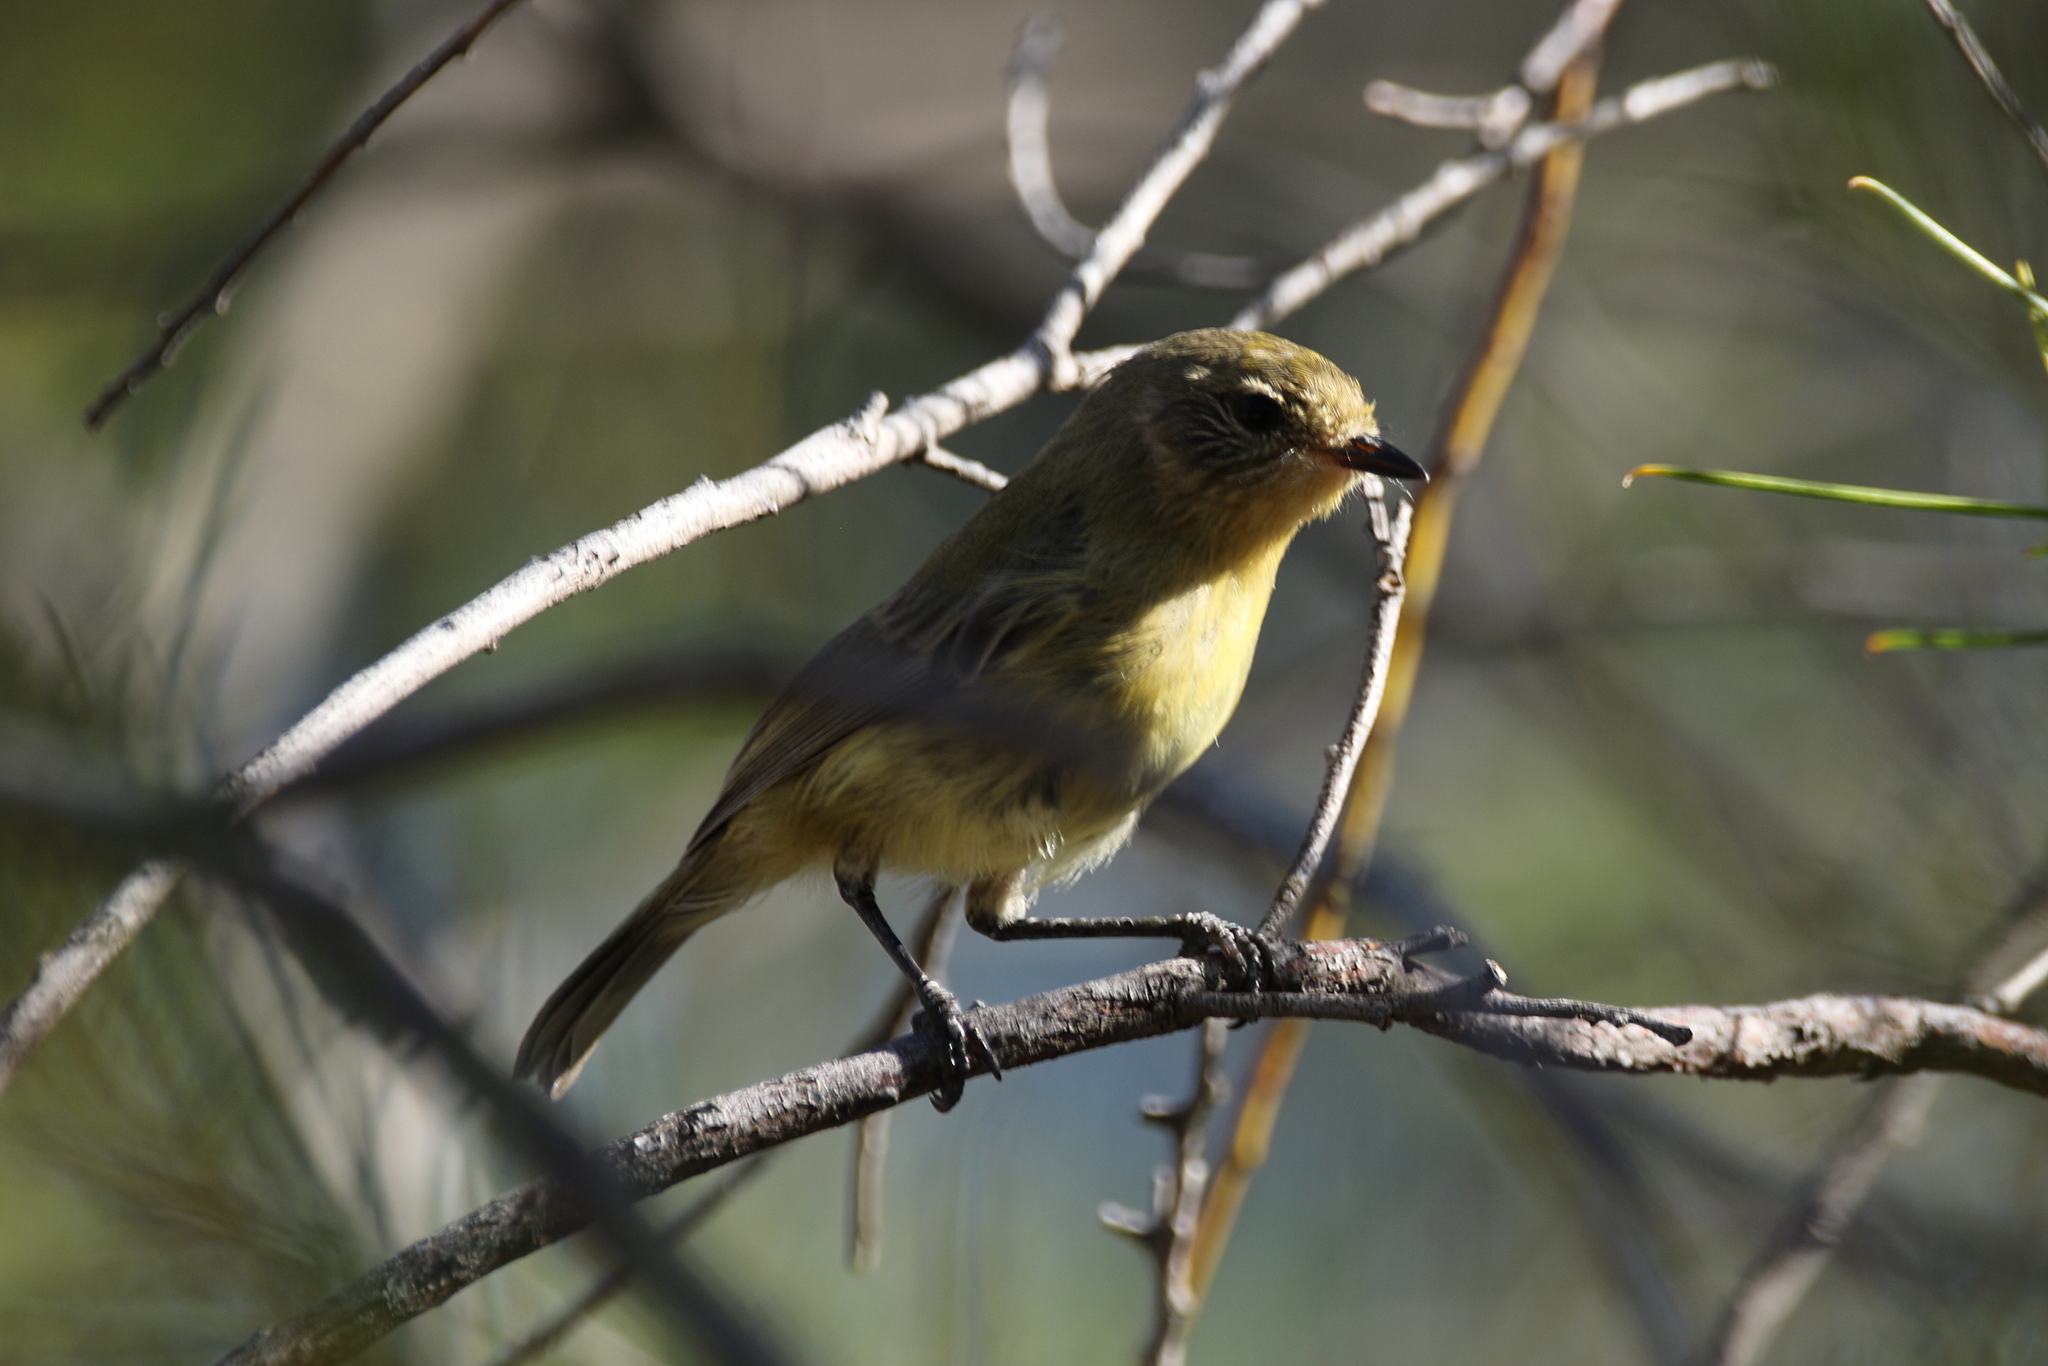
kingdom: Animalia
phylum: Chordata
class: Aves
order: Passeriformes
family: Acanthizidae
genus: Acanthiza
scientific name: Acanthiza nana
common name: Yellow thornbill
